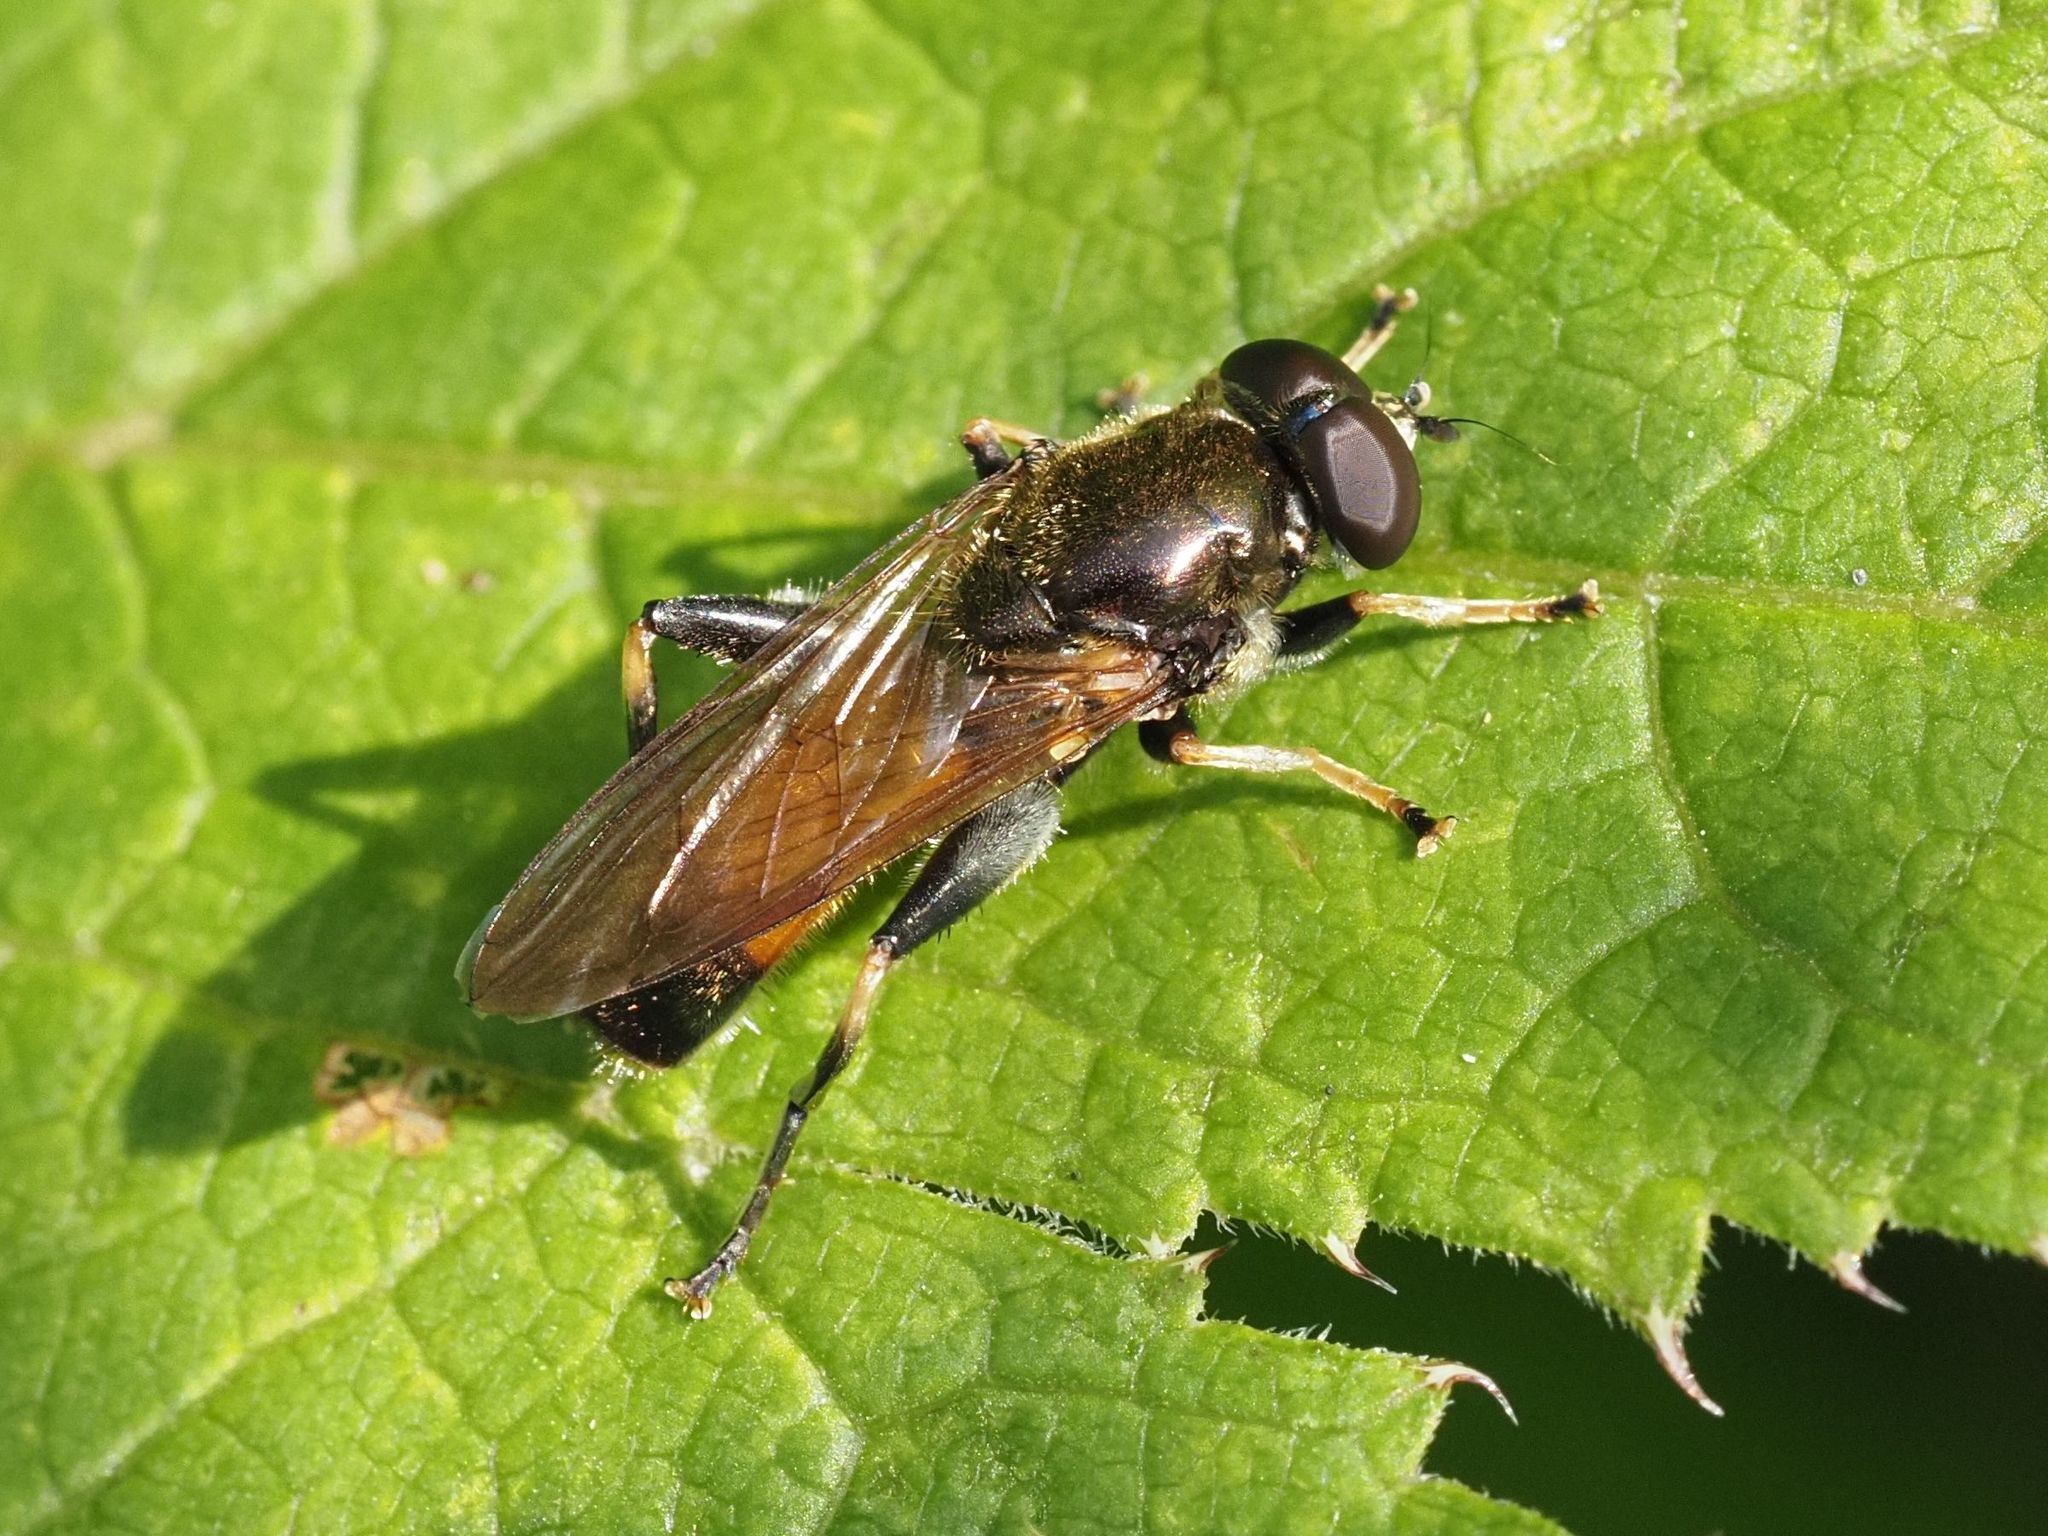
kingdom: Animalia
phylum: Arthropoda
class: Insecta
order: Diptera
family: Syrphidae
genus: Xylota
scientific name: Xylota segnis
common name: Brown-toed forest fly
